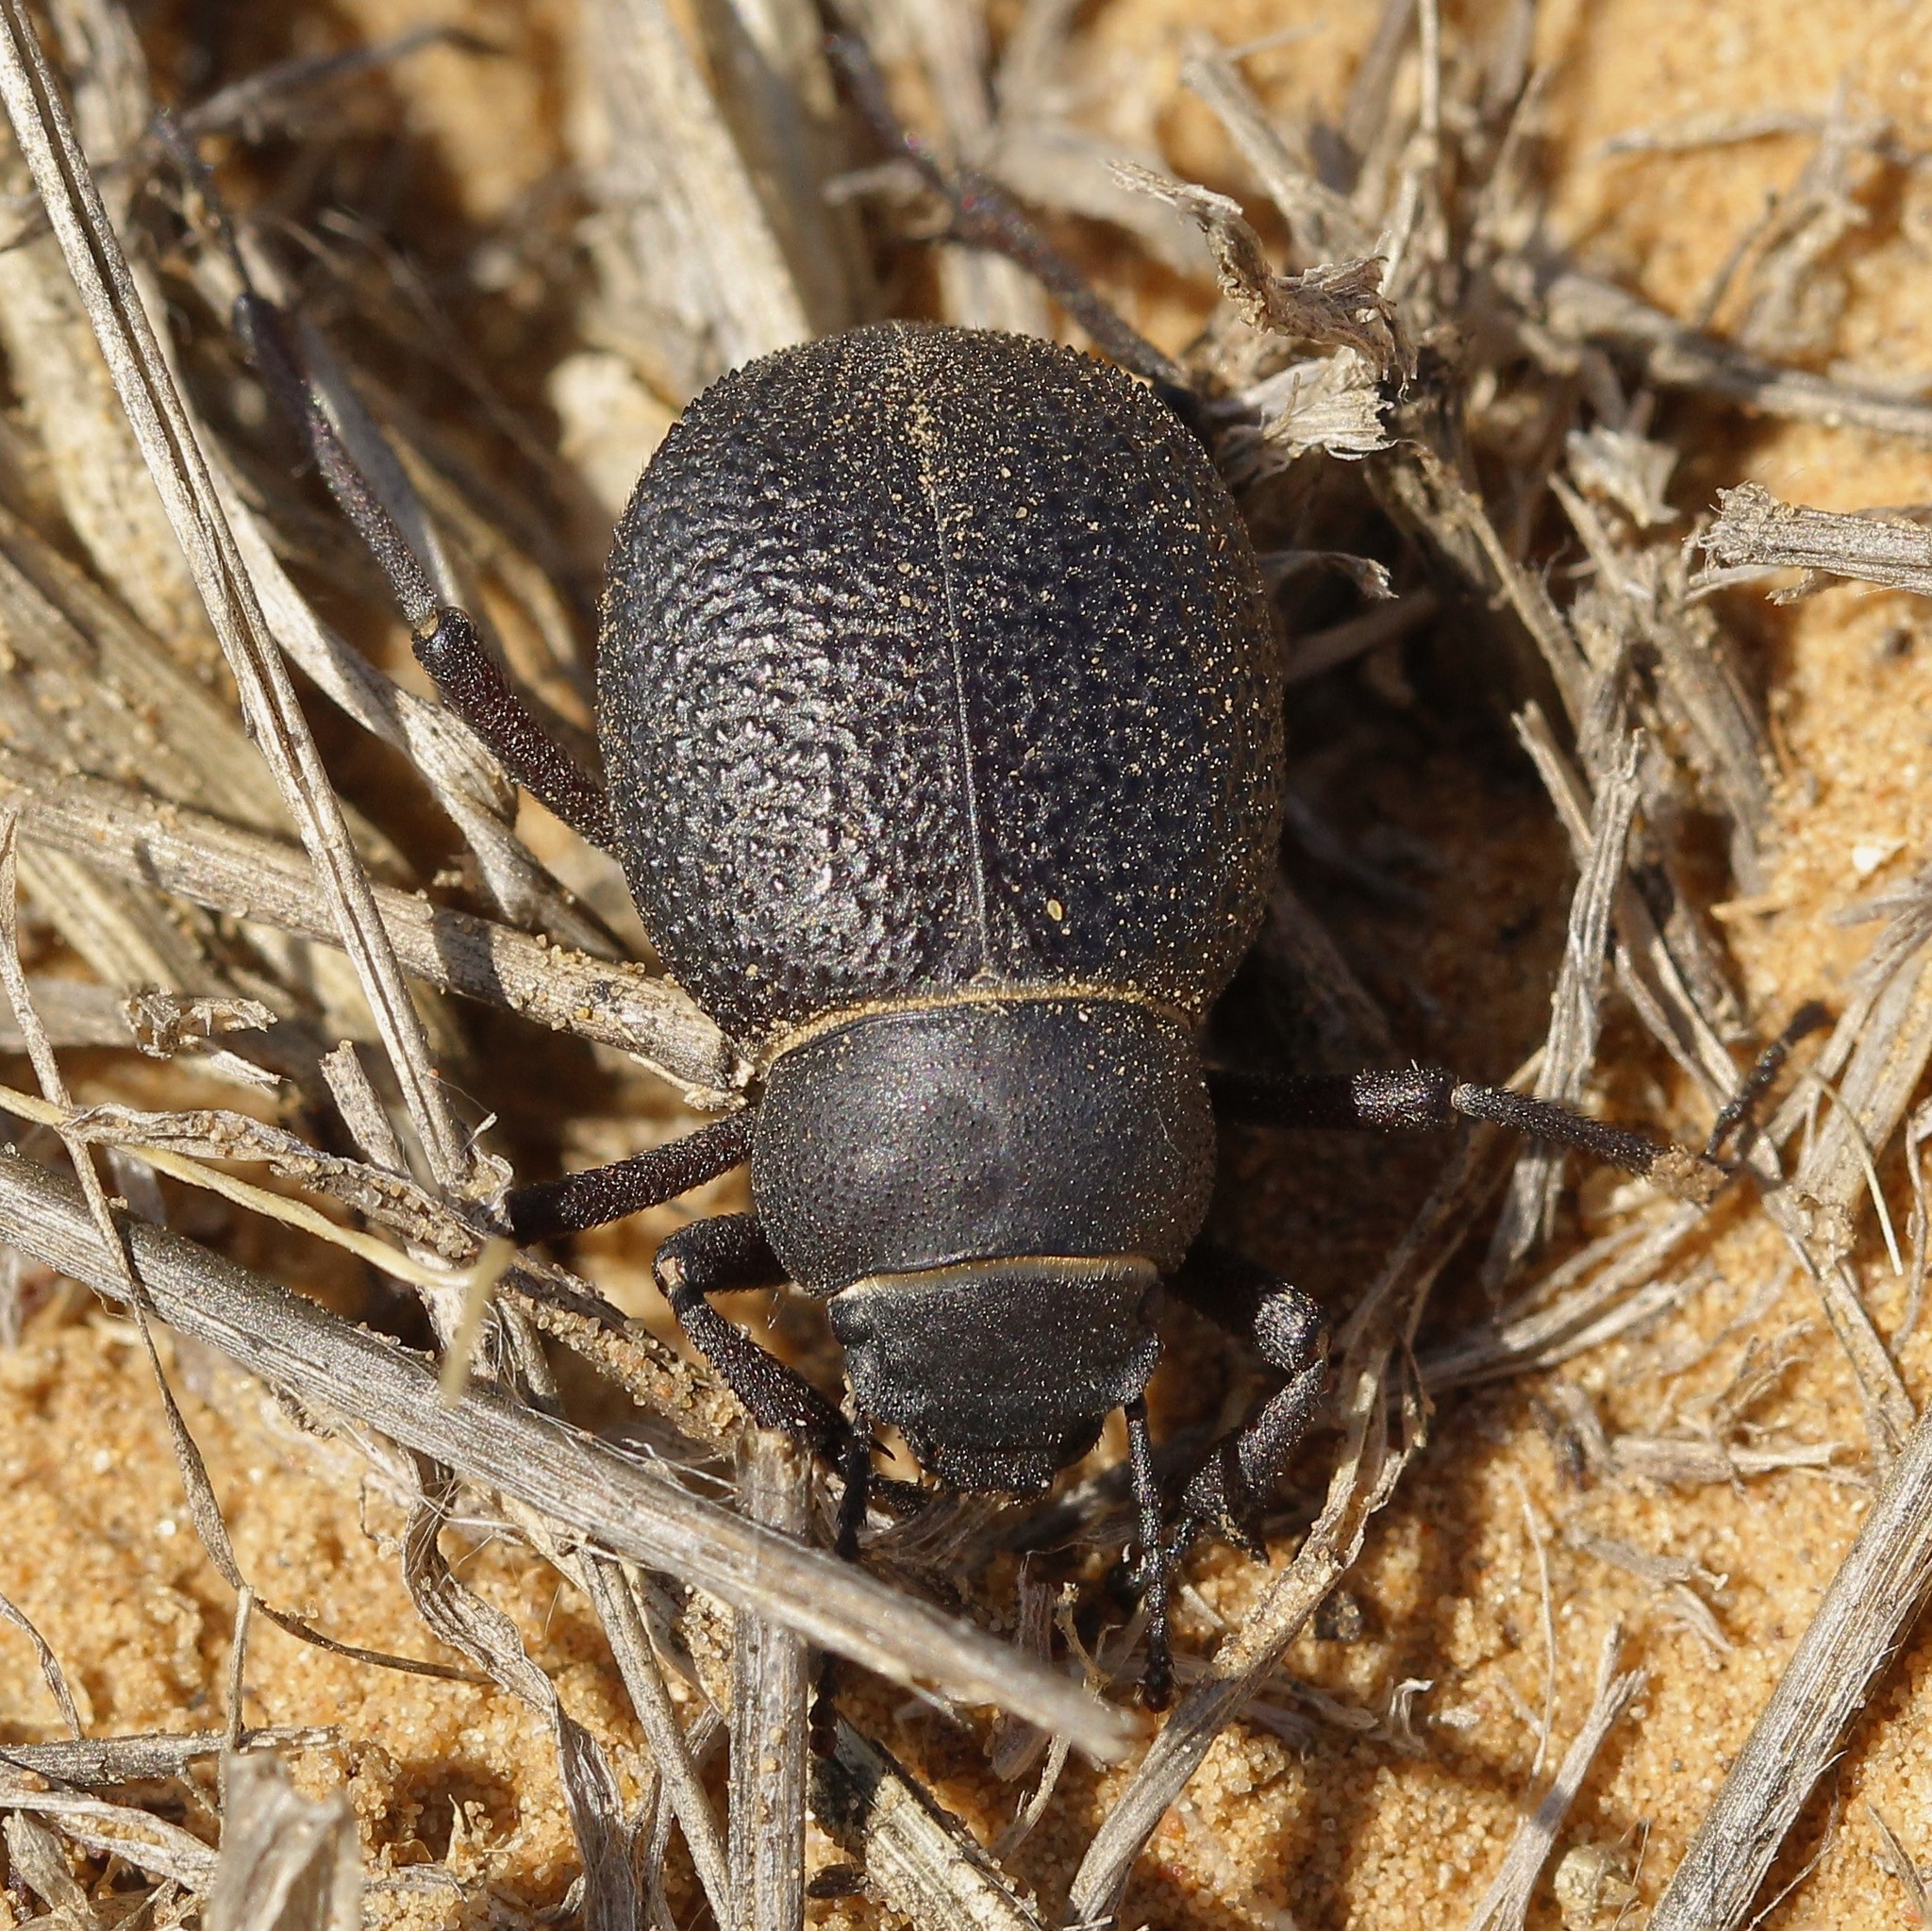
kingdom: Animalia
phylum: Arthropoda
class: Insecta
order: Coleoptera
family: Tenebrionidae
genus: Pimelia
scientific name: Pimelia capito
